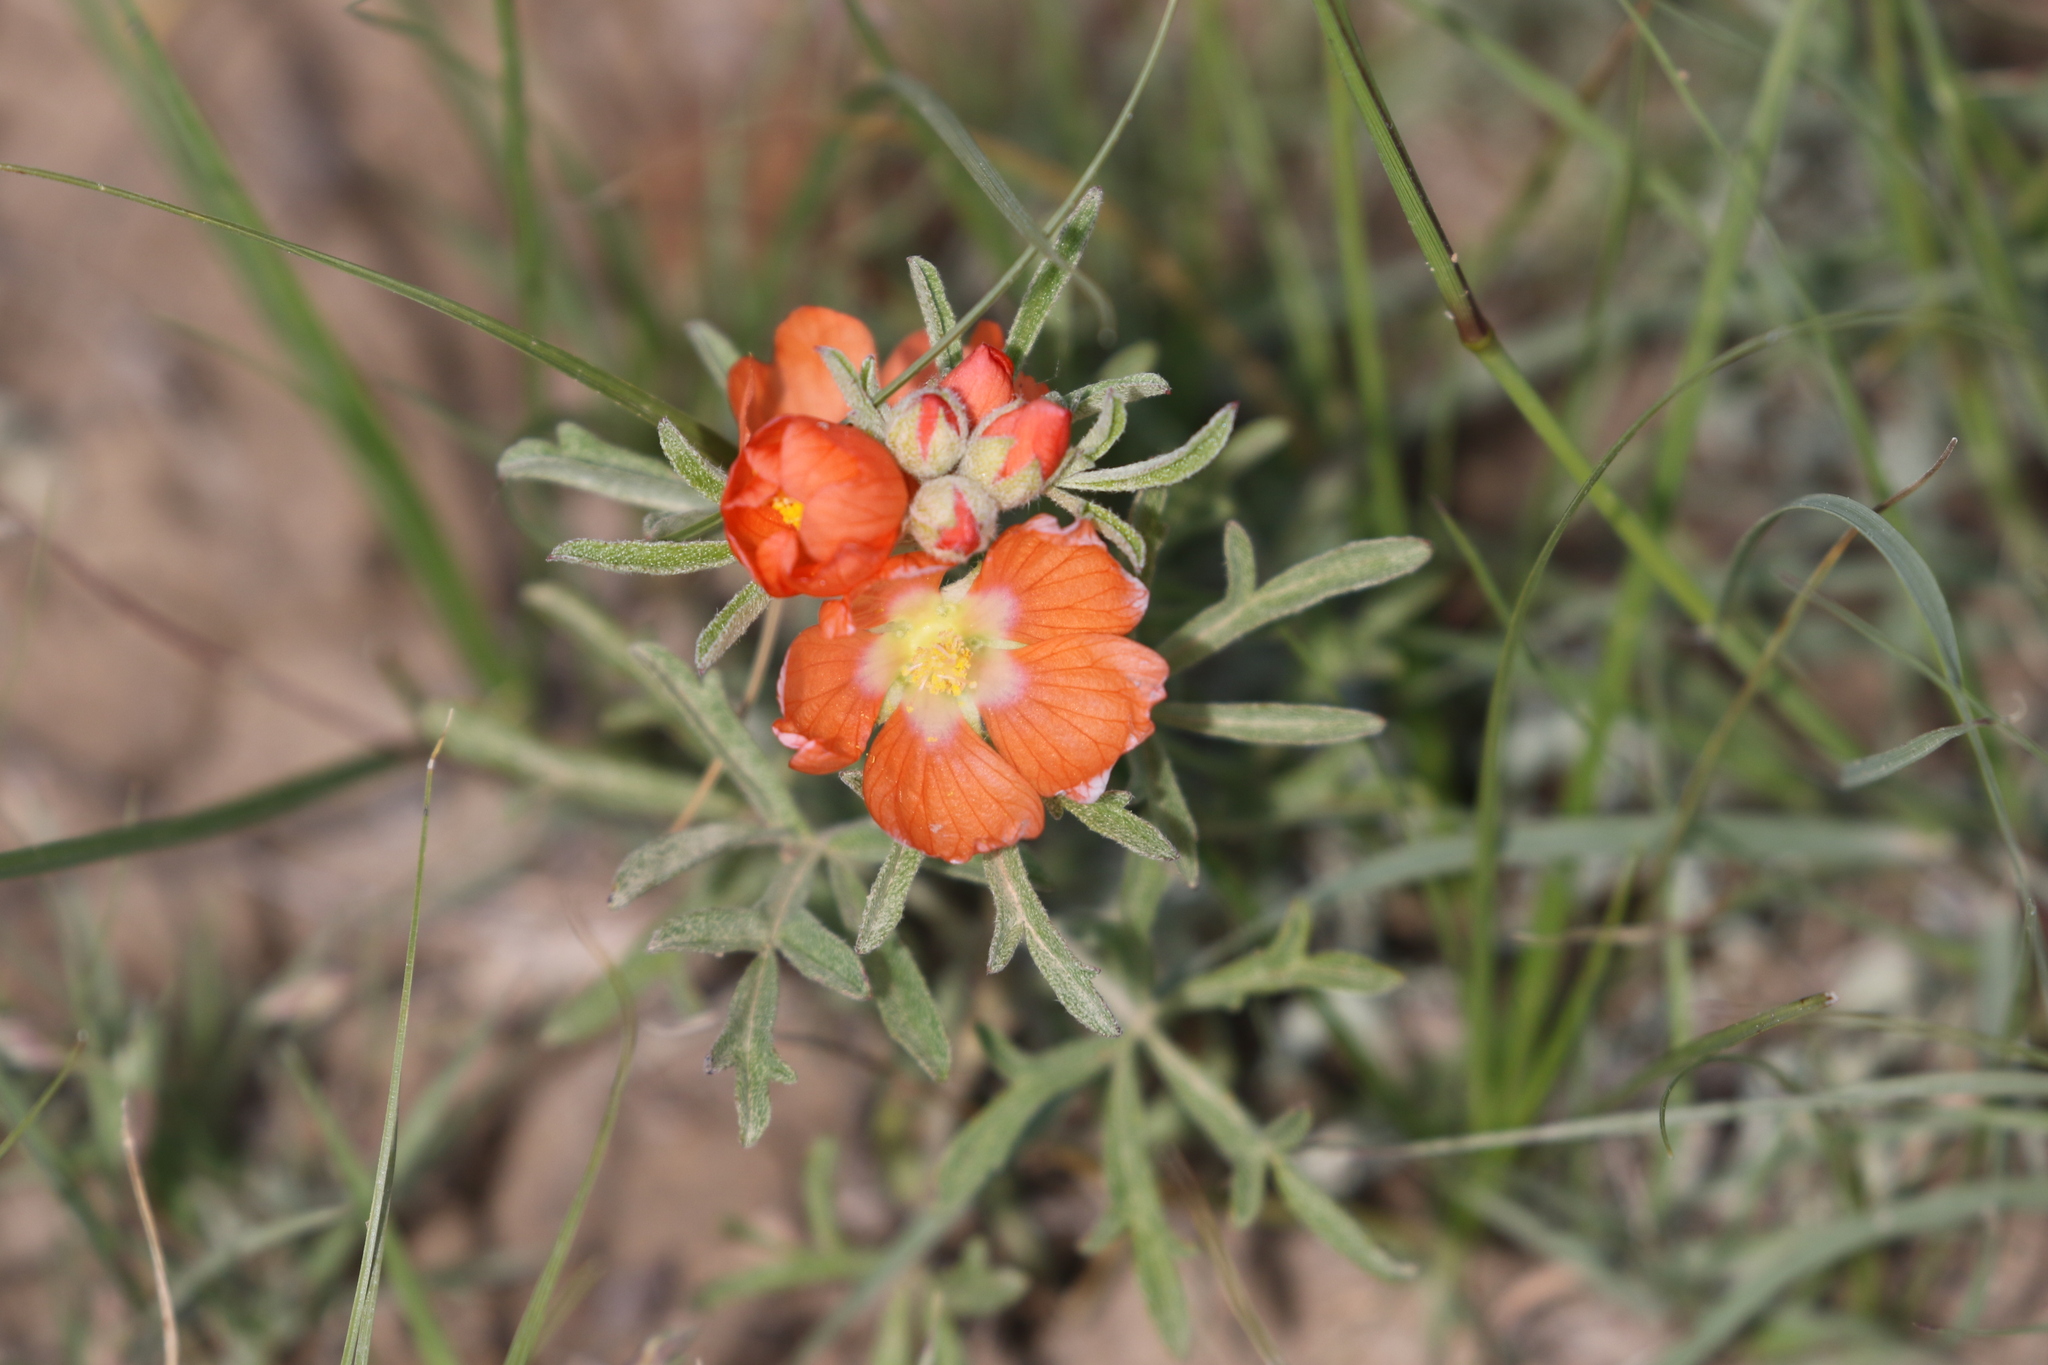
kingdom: Plantae
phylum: Tracheophyta
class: Magnoliopsida
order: Malvales
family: Malvaceae
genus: Sphaeralcea
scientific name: Sphaeralcea coccinea
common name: Moss-rose
